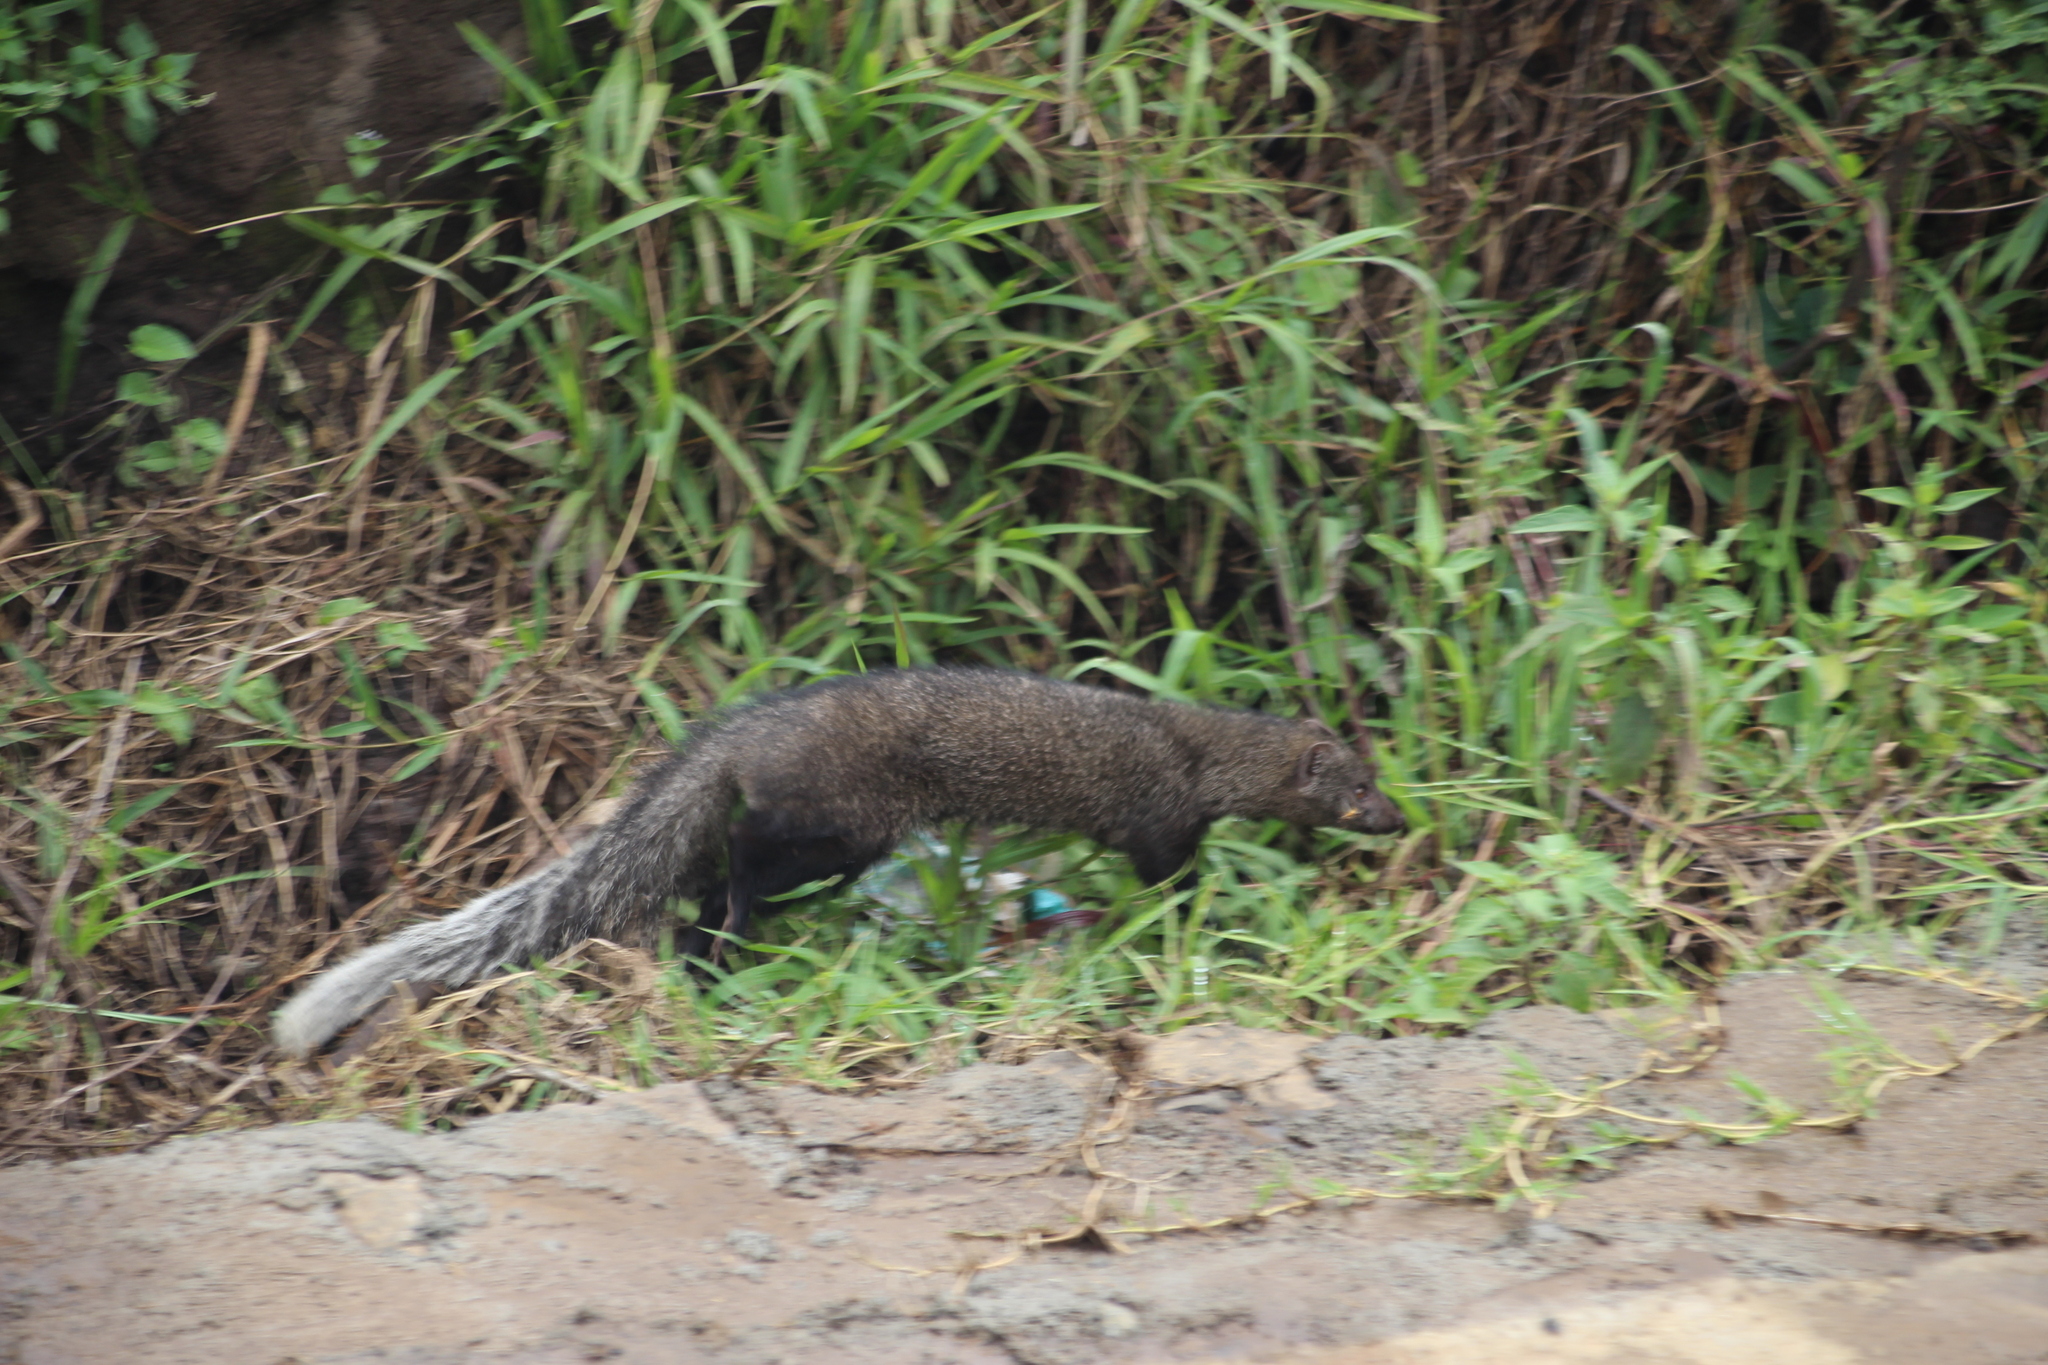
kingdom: Animalia
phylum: Chordata
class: Mammalia
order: Carnivora
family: Herpestidae
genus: Ichneumia
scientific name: Ichneumia albicauda
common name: White-tailed mongoose
